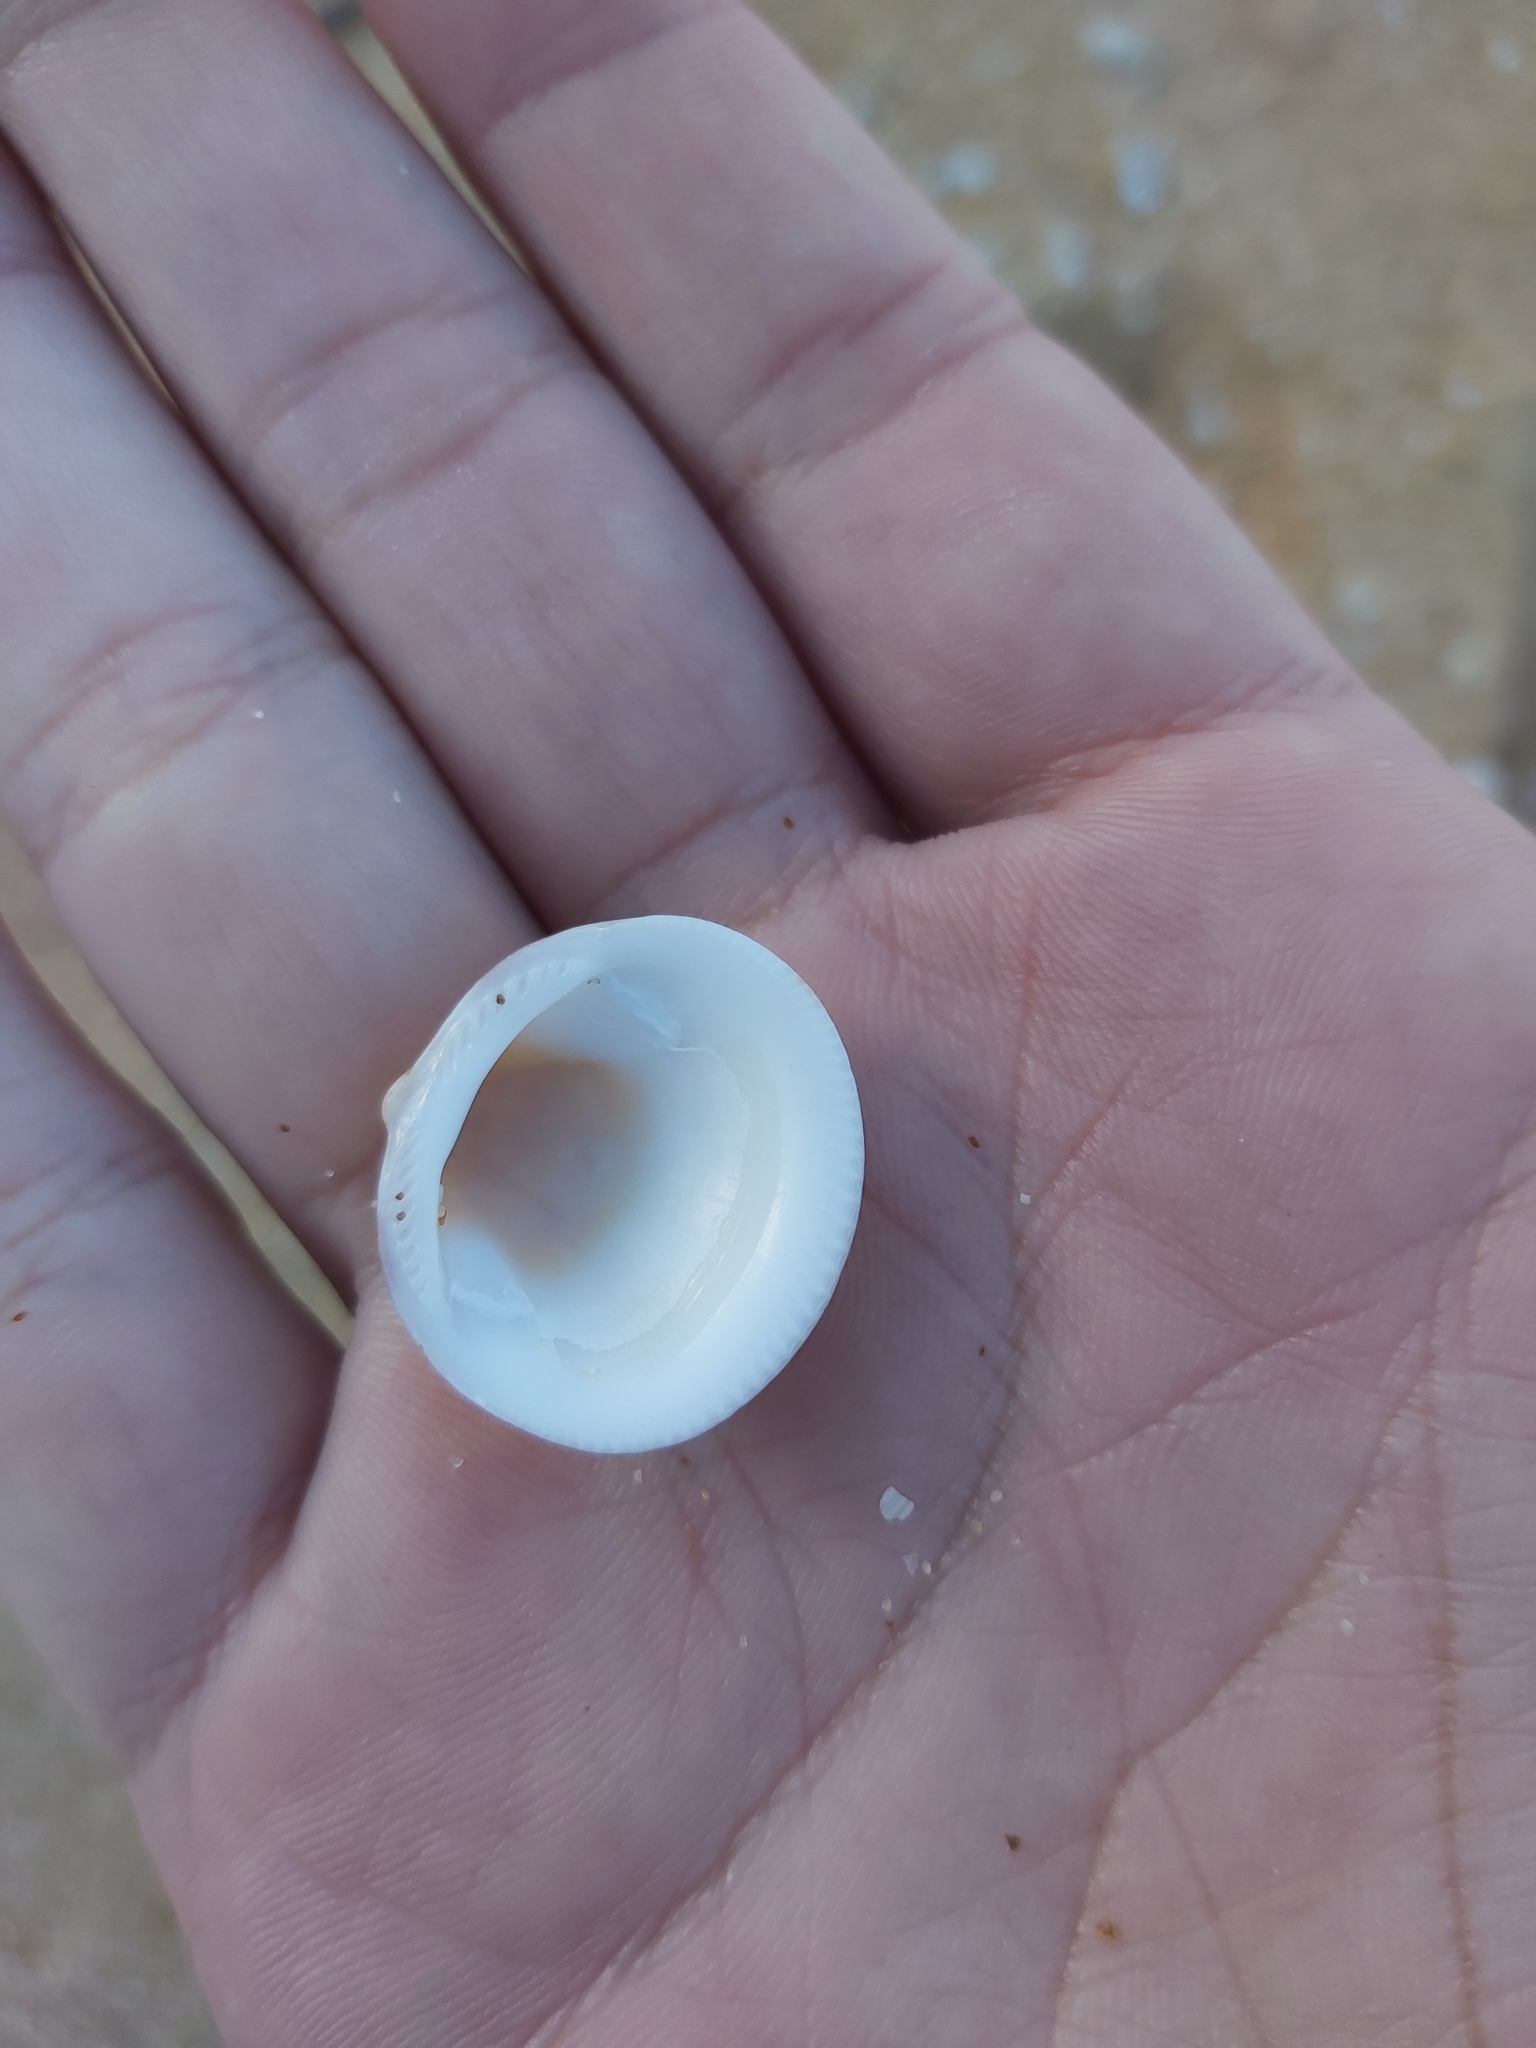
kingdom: Animalia
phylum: Mollusca
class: Bivalvia
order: Arcida
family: Glycymerididae
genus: Glycymeris
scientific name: Glycymeris grayana
